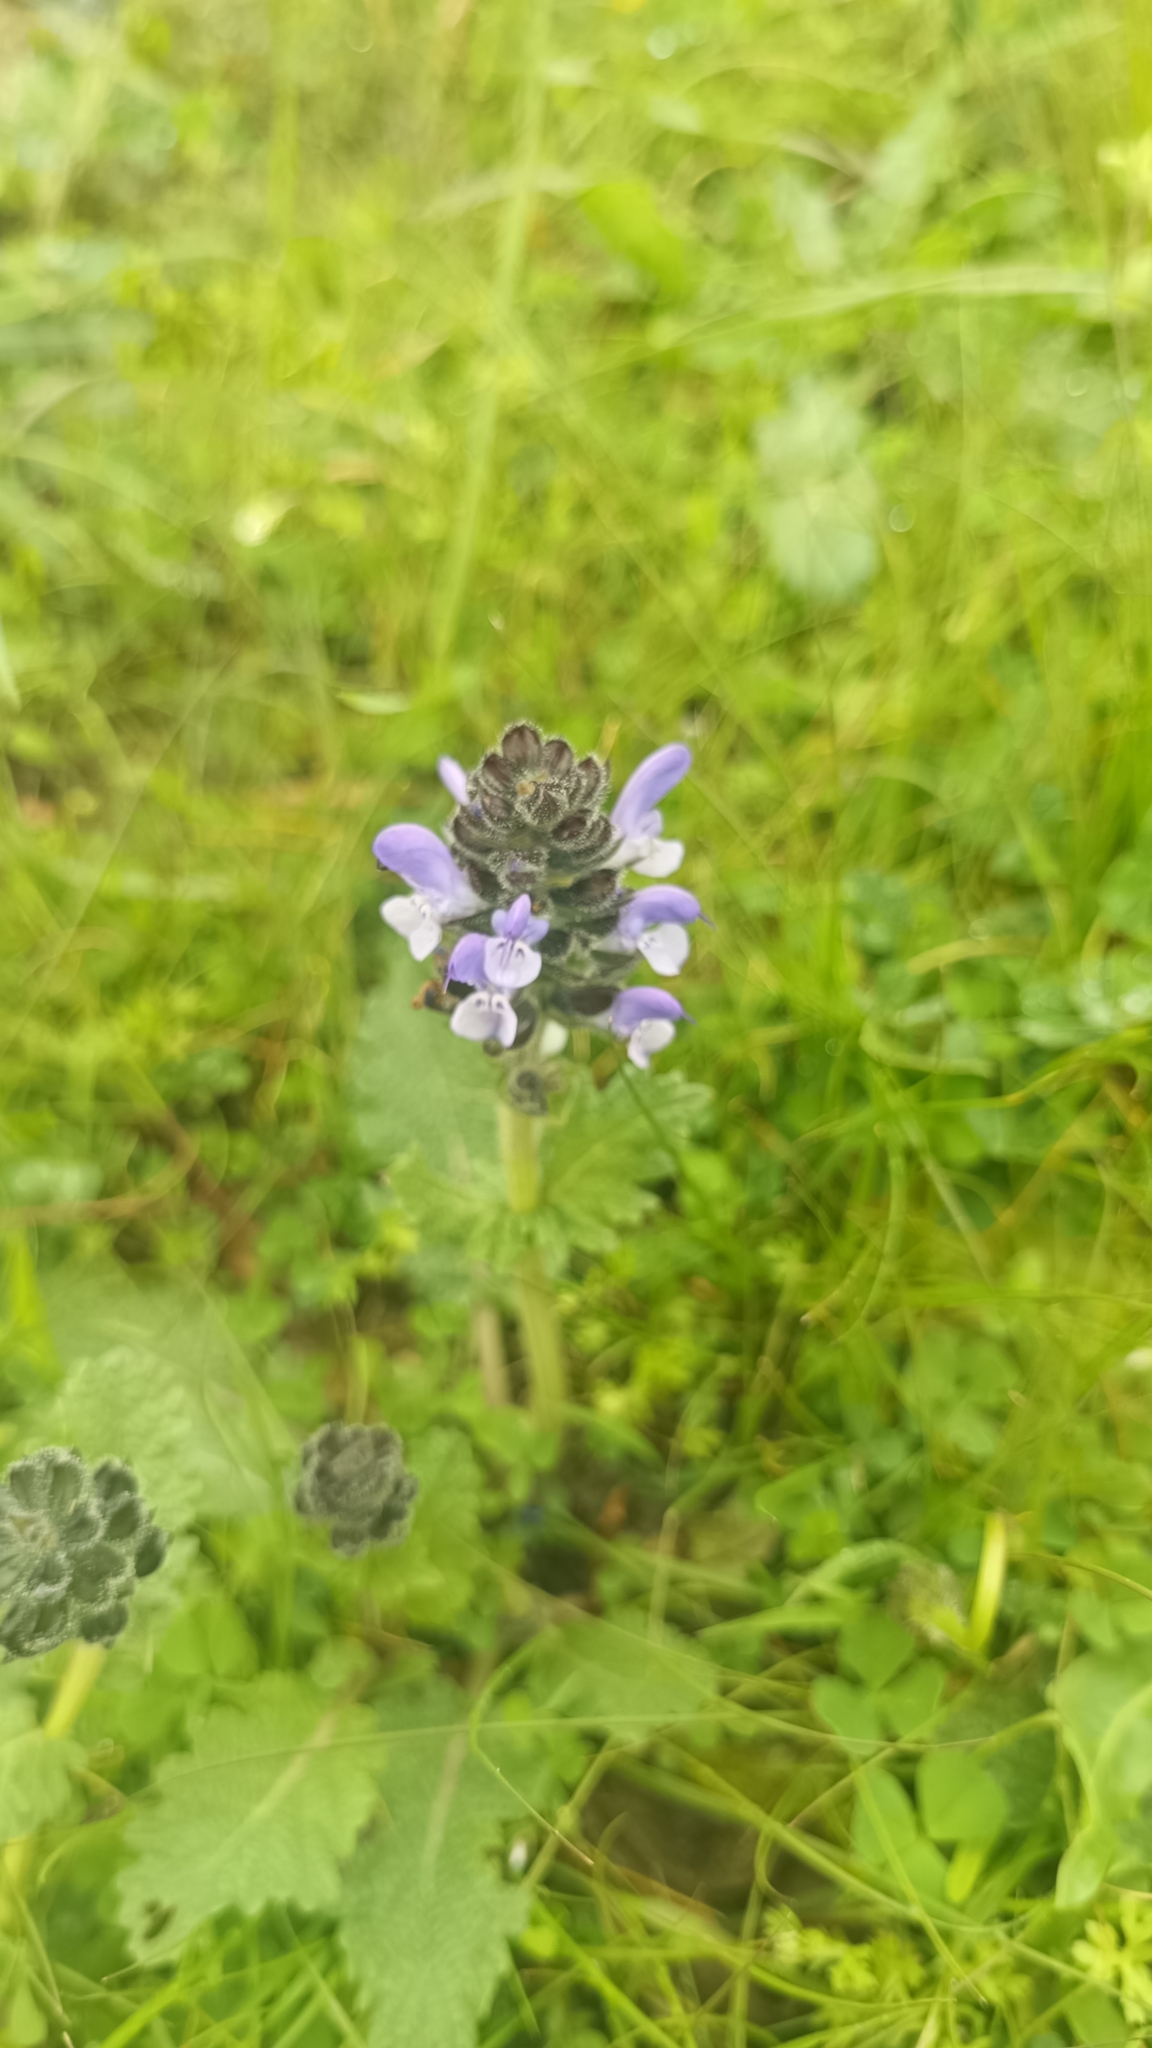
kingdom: Plantae
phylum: Tracheophyta
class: Magnoliopsida
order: Lamiales
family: Lamiaceae
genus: Salvia
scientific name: Salvia clandestina
